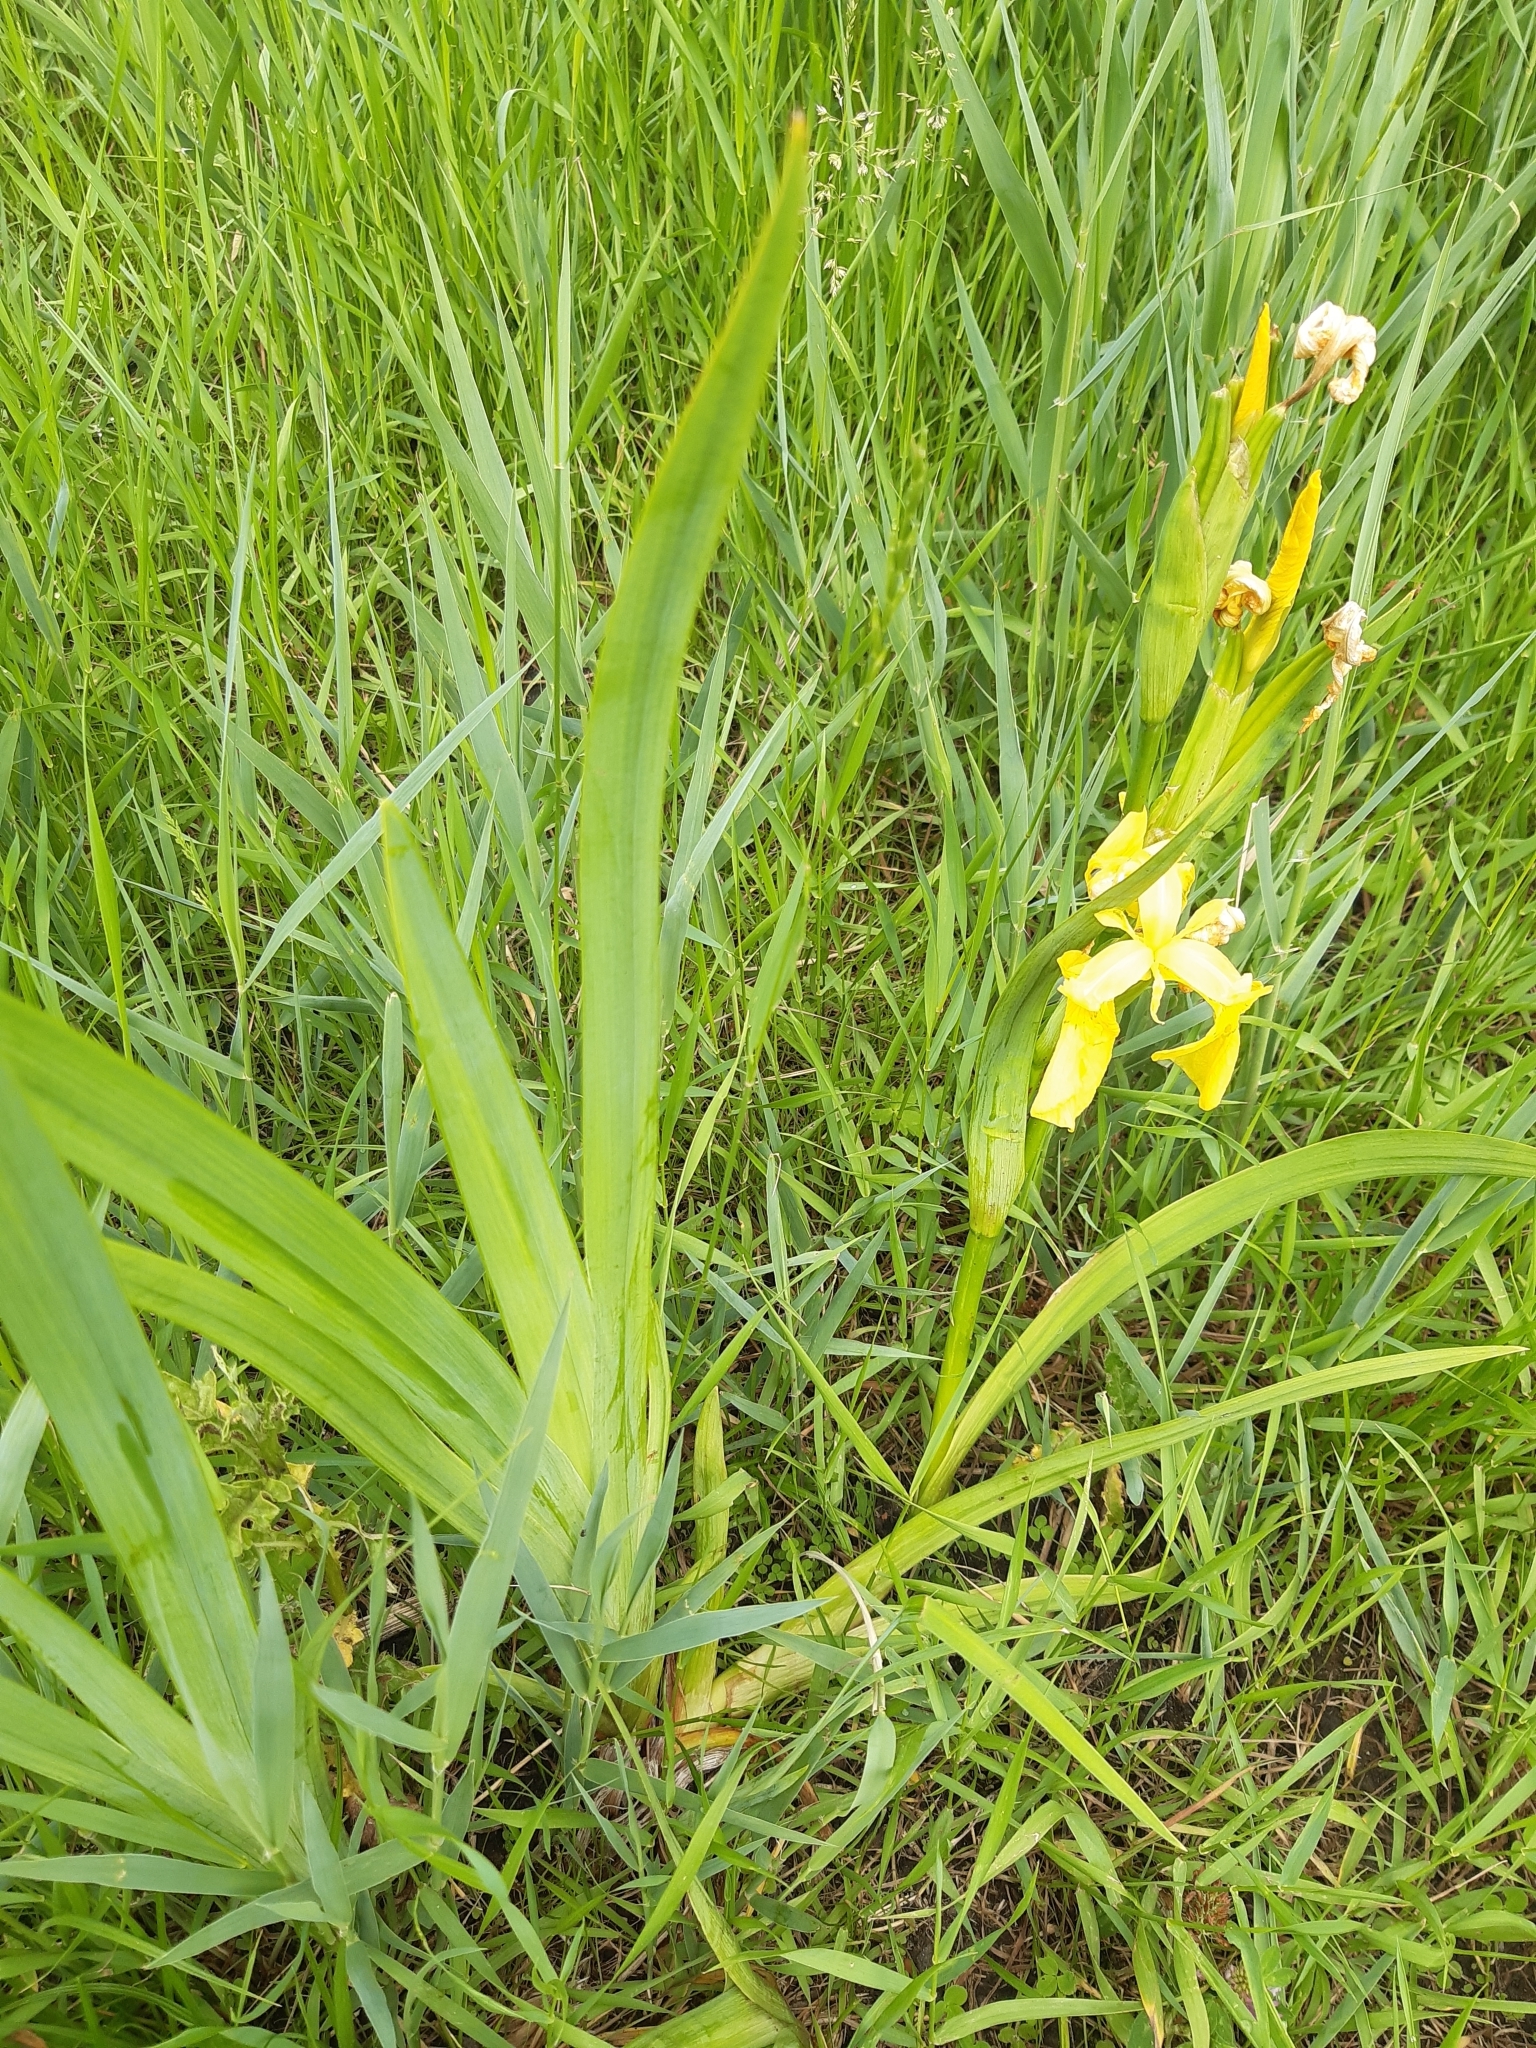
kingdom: Plantae
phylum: Tracheophyta
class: Liliopsida
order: Asparagales
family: Iridaceae
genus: Iris
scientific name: Iris pseudacorus
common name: Yellow flag
